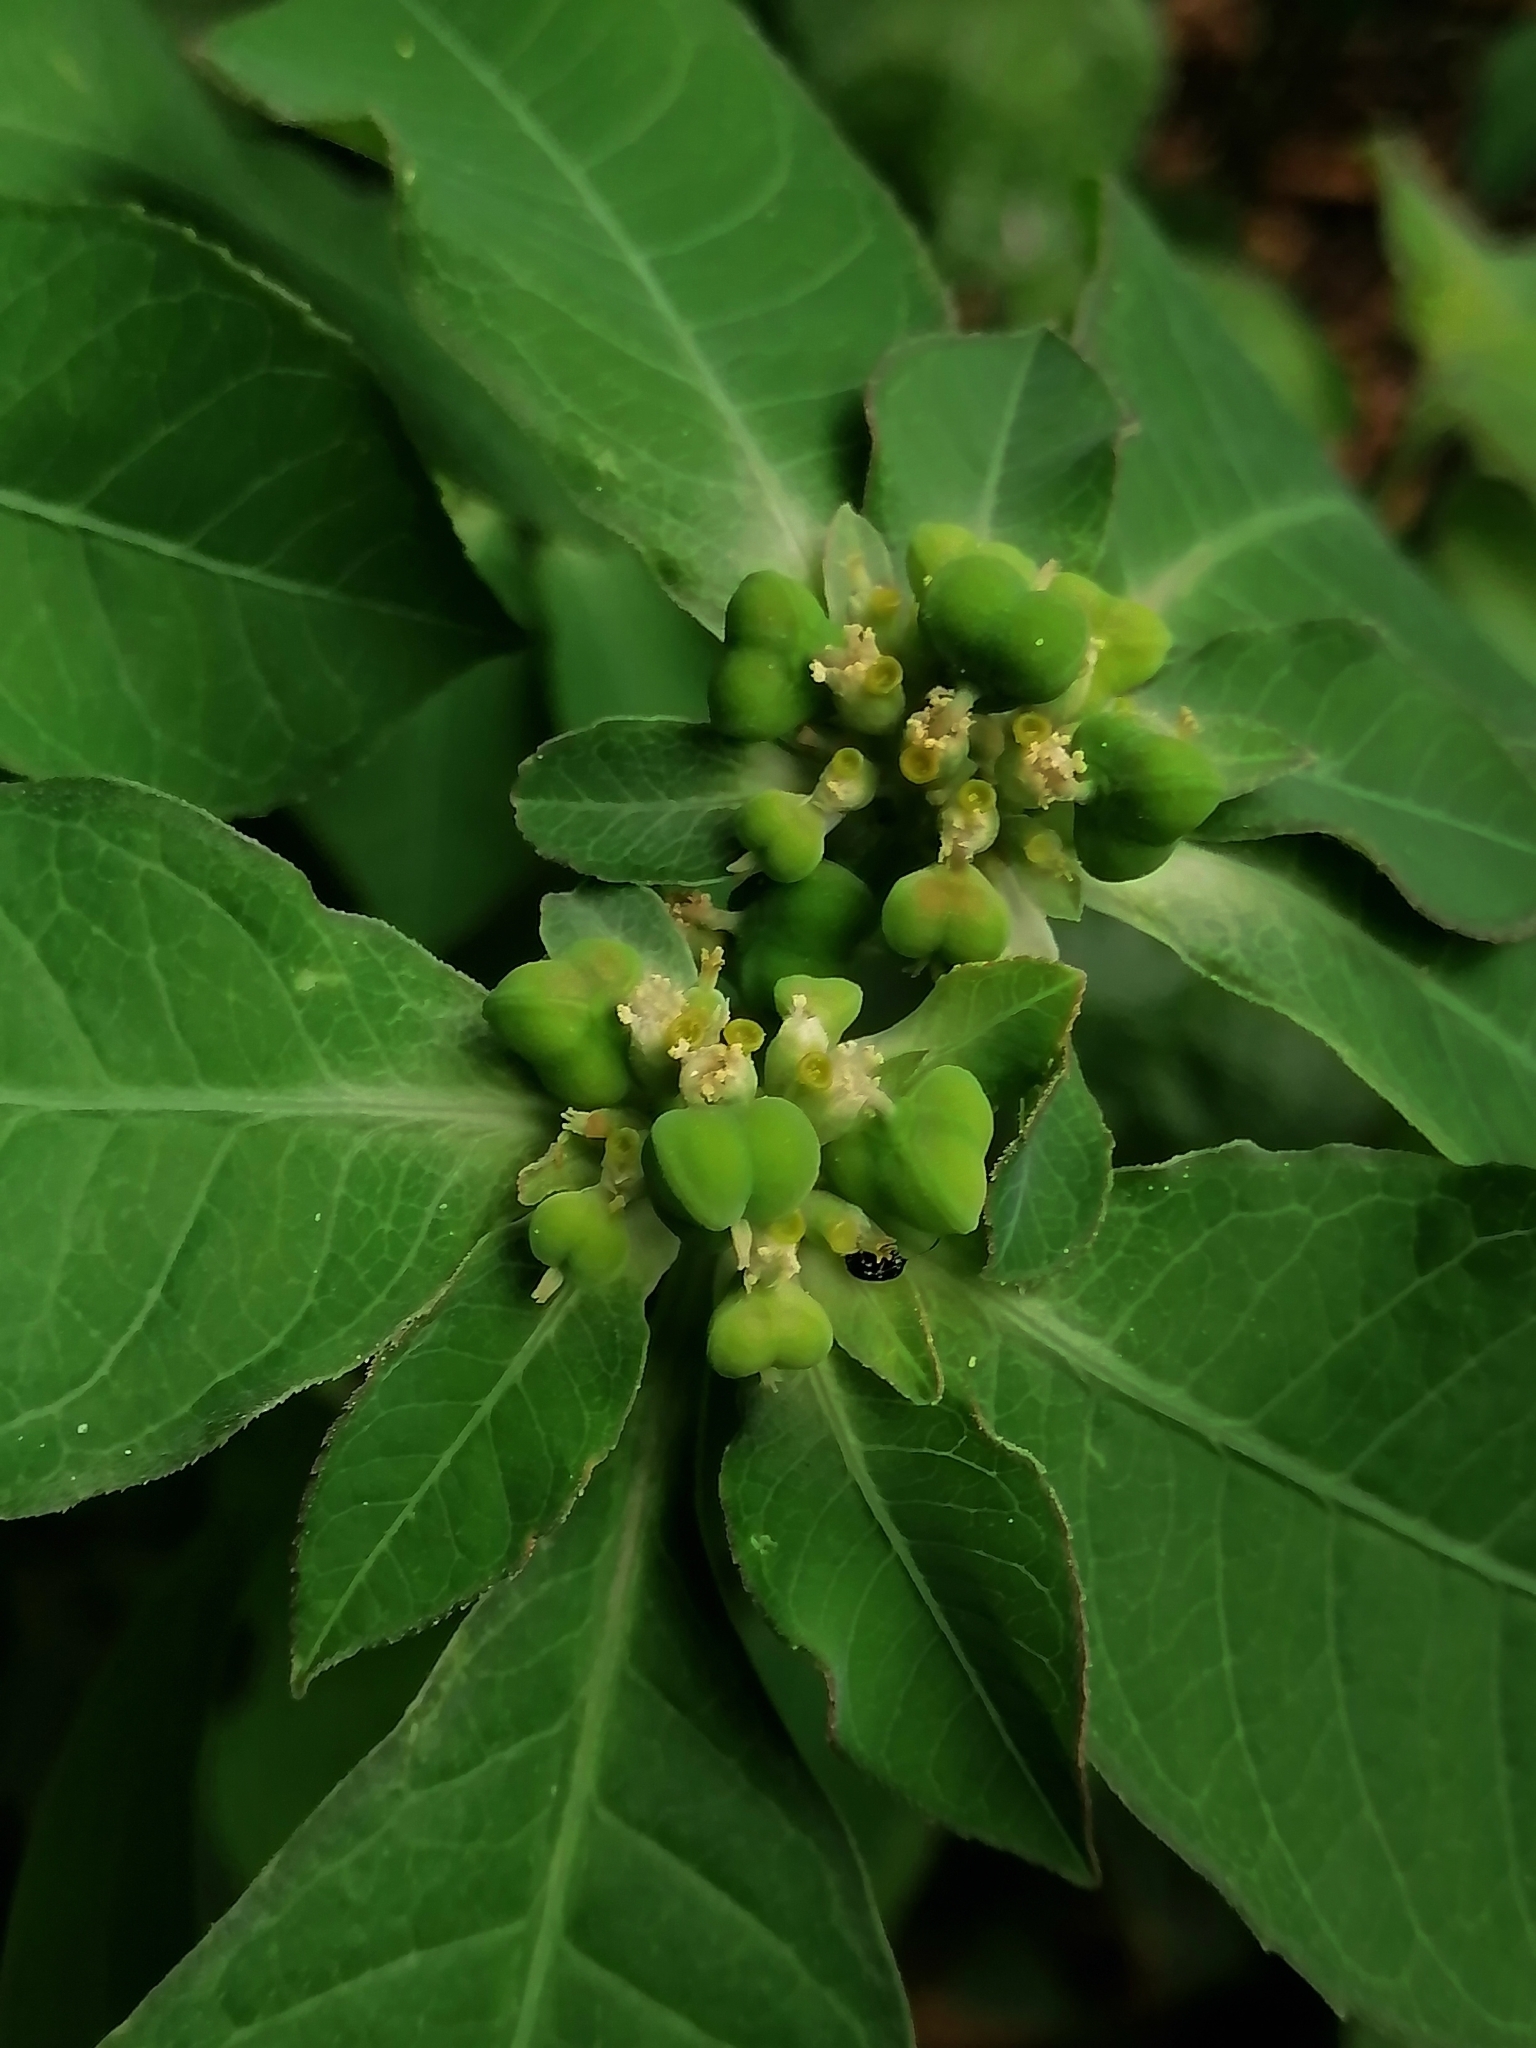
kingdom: Plantae
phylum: Tracheophyta
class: Magnoliopsida
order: Malpighiales
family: Euphorbiaceae
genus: Euphorbia
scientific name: Euphorbia heterophylla
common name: Mexican fireplant
